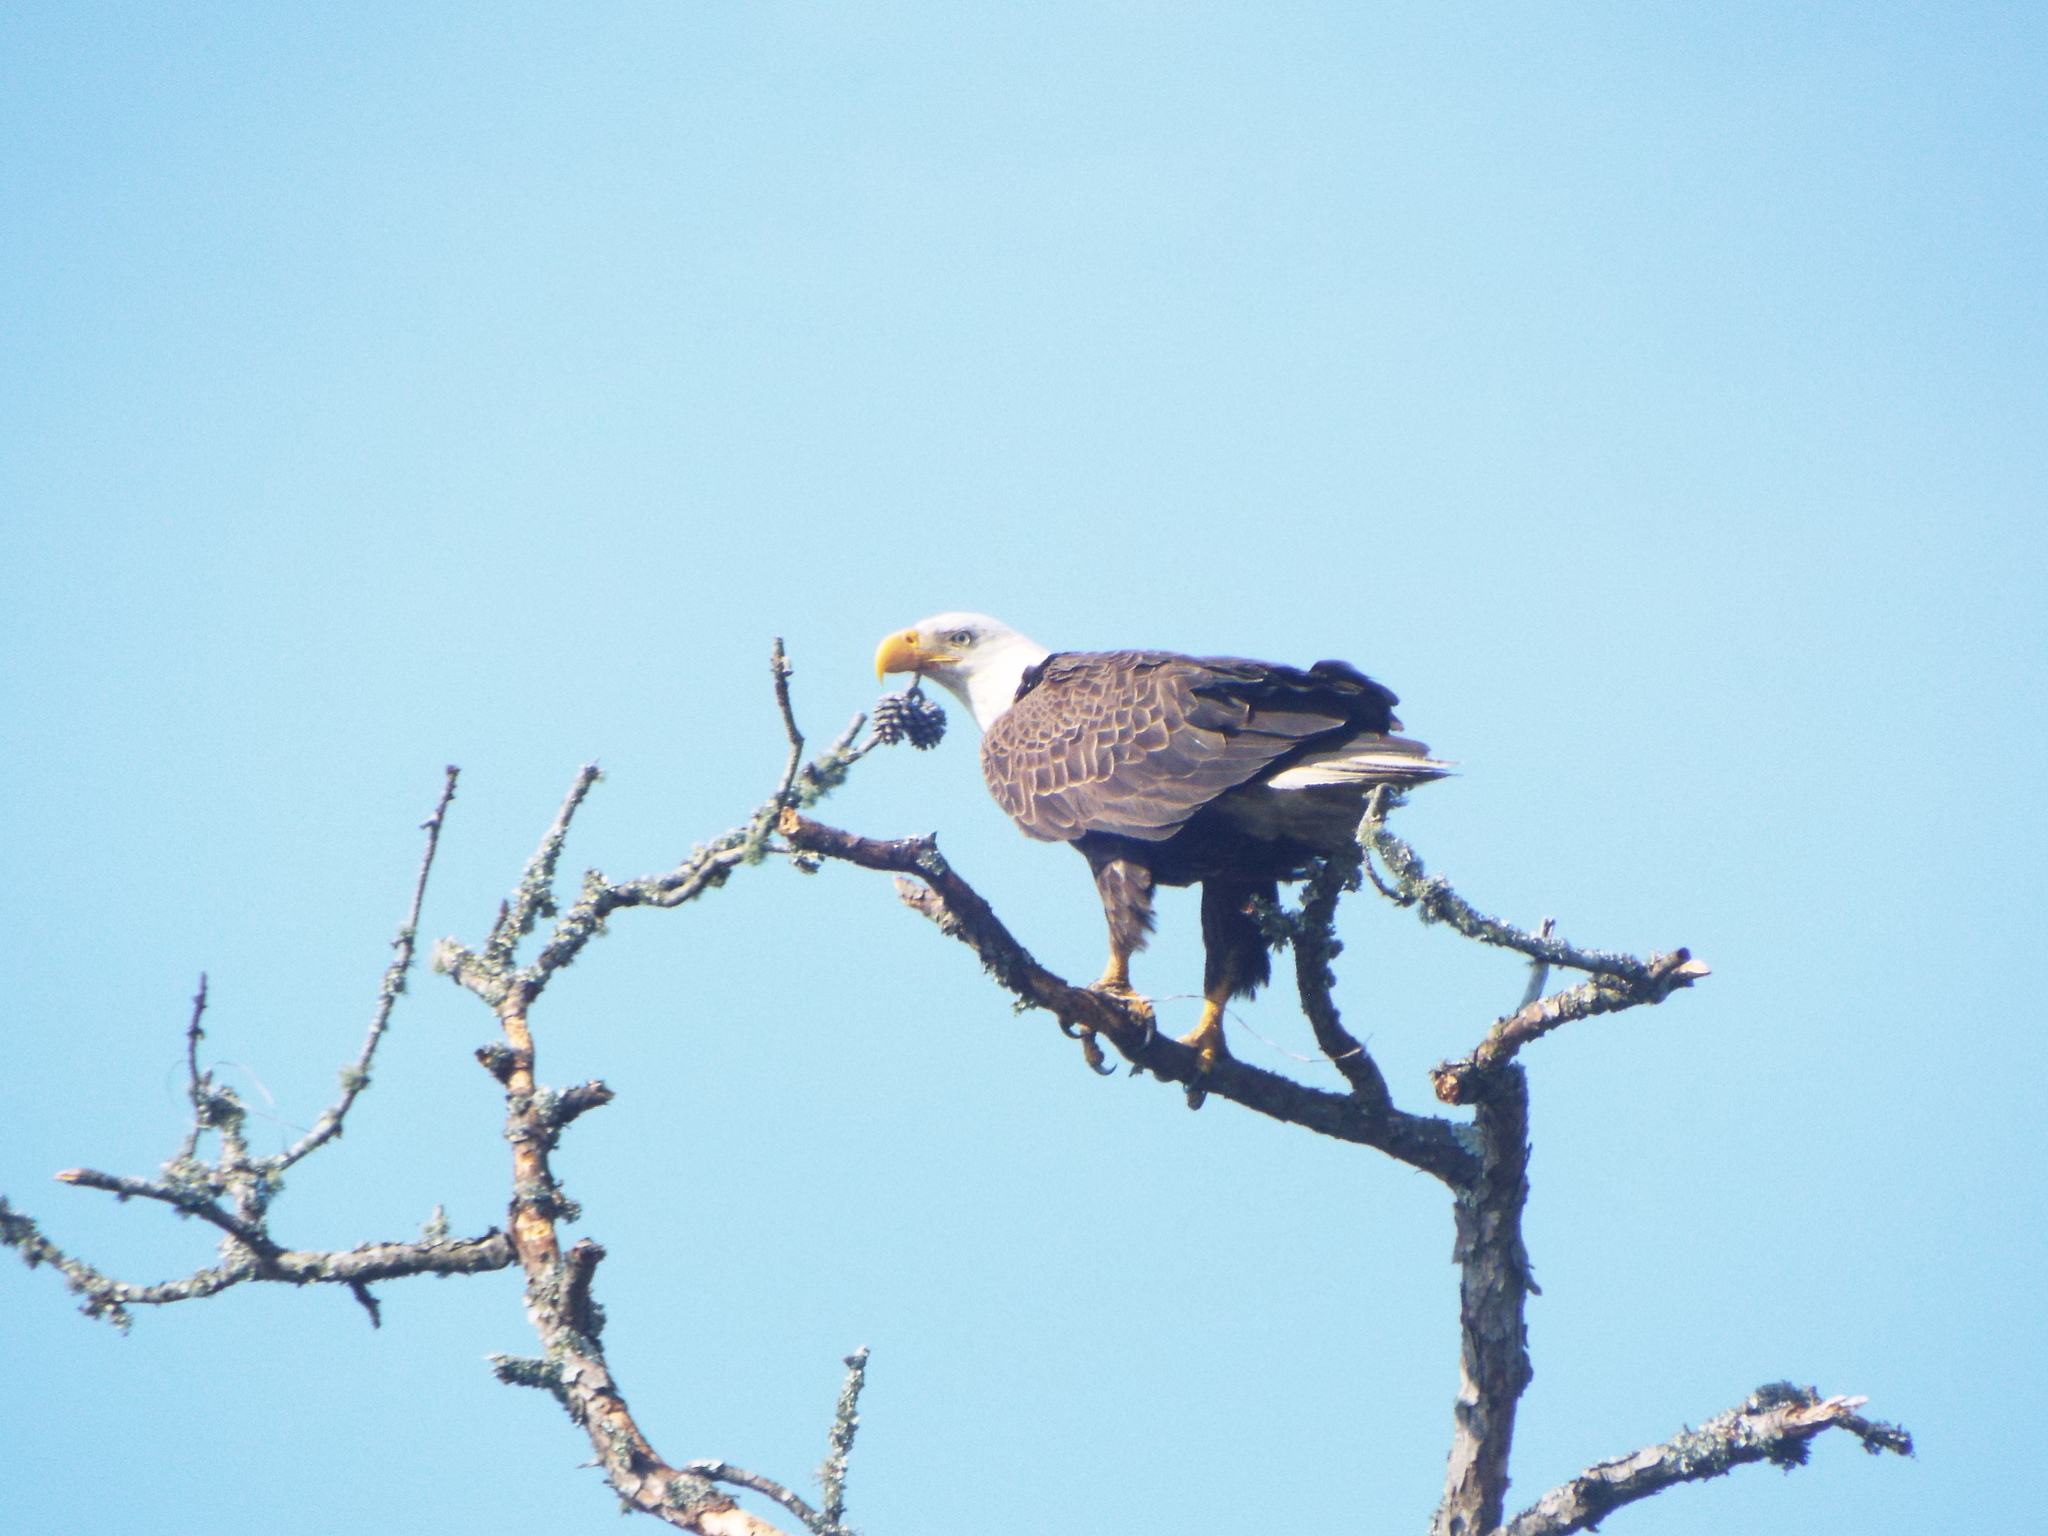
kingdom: Animalia
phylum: Chordata
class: Aves
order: Accipitriformes
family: Accipitridae
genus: Haliaeetus
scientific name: Haliaeetus leucocephalus
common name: Bald eagle
